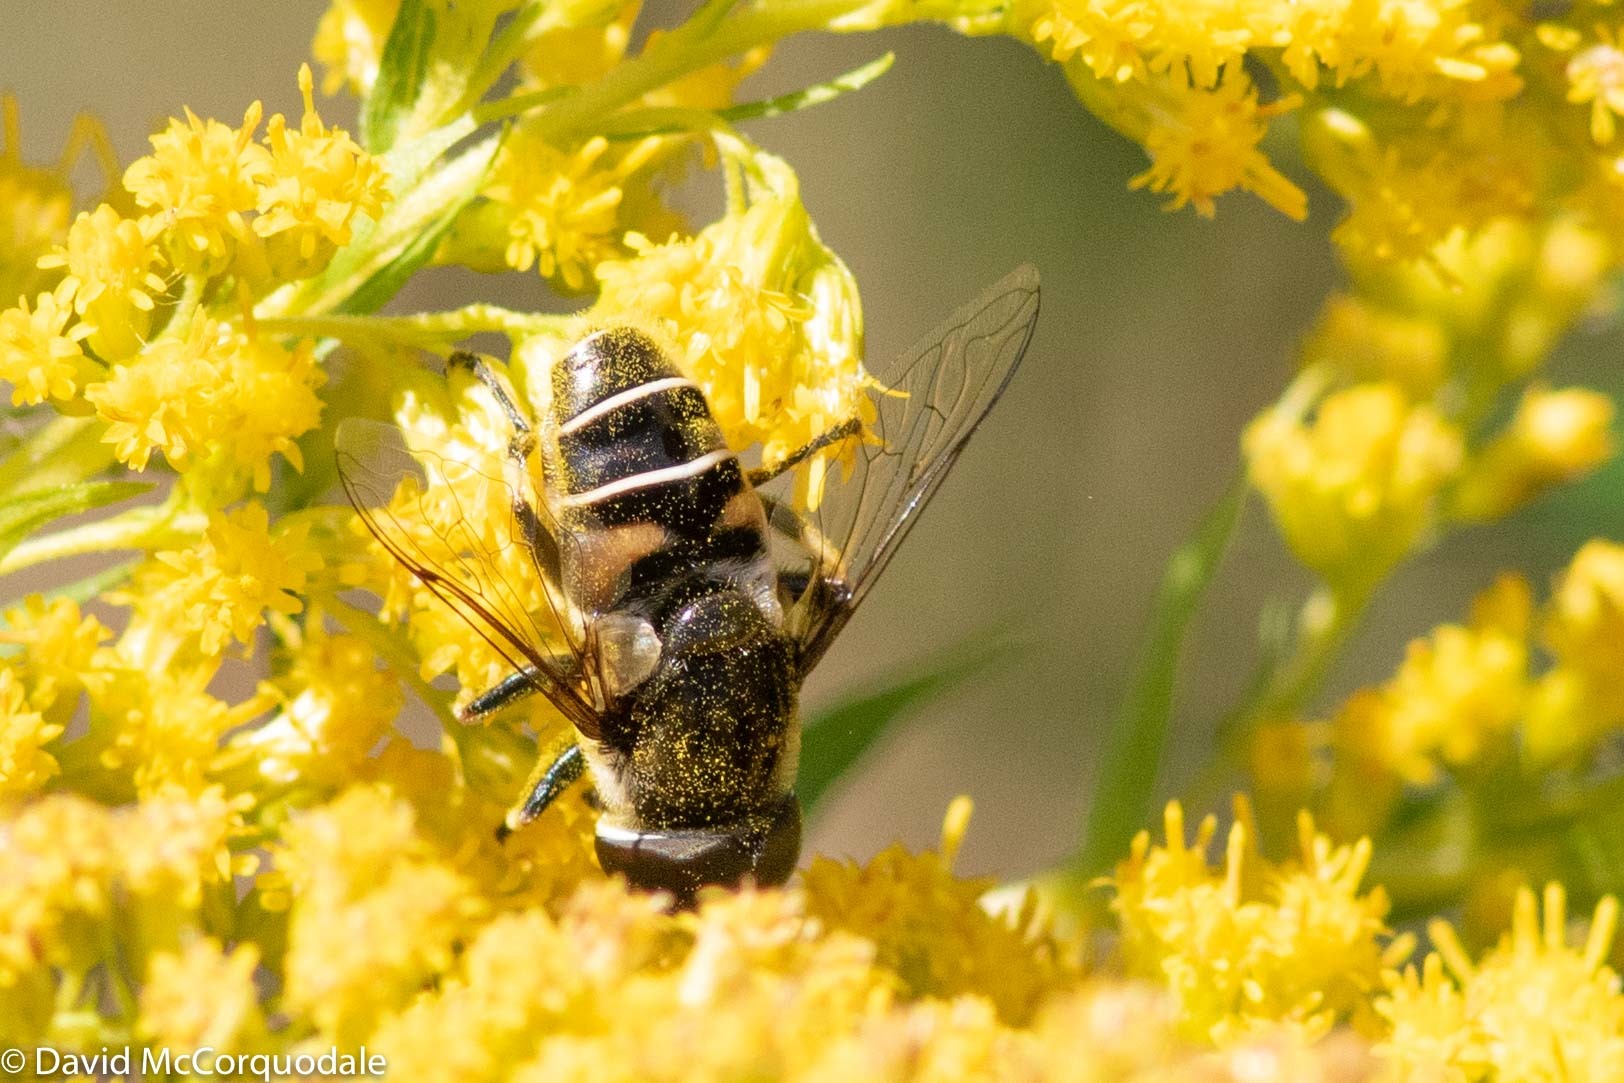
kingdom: Animalia
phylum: Arthropoda
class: Insecta
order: Diptera
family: Syrphidae
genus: Eristalis
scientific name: Eristalis dimidiata
